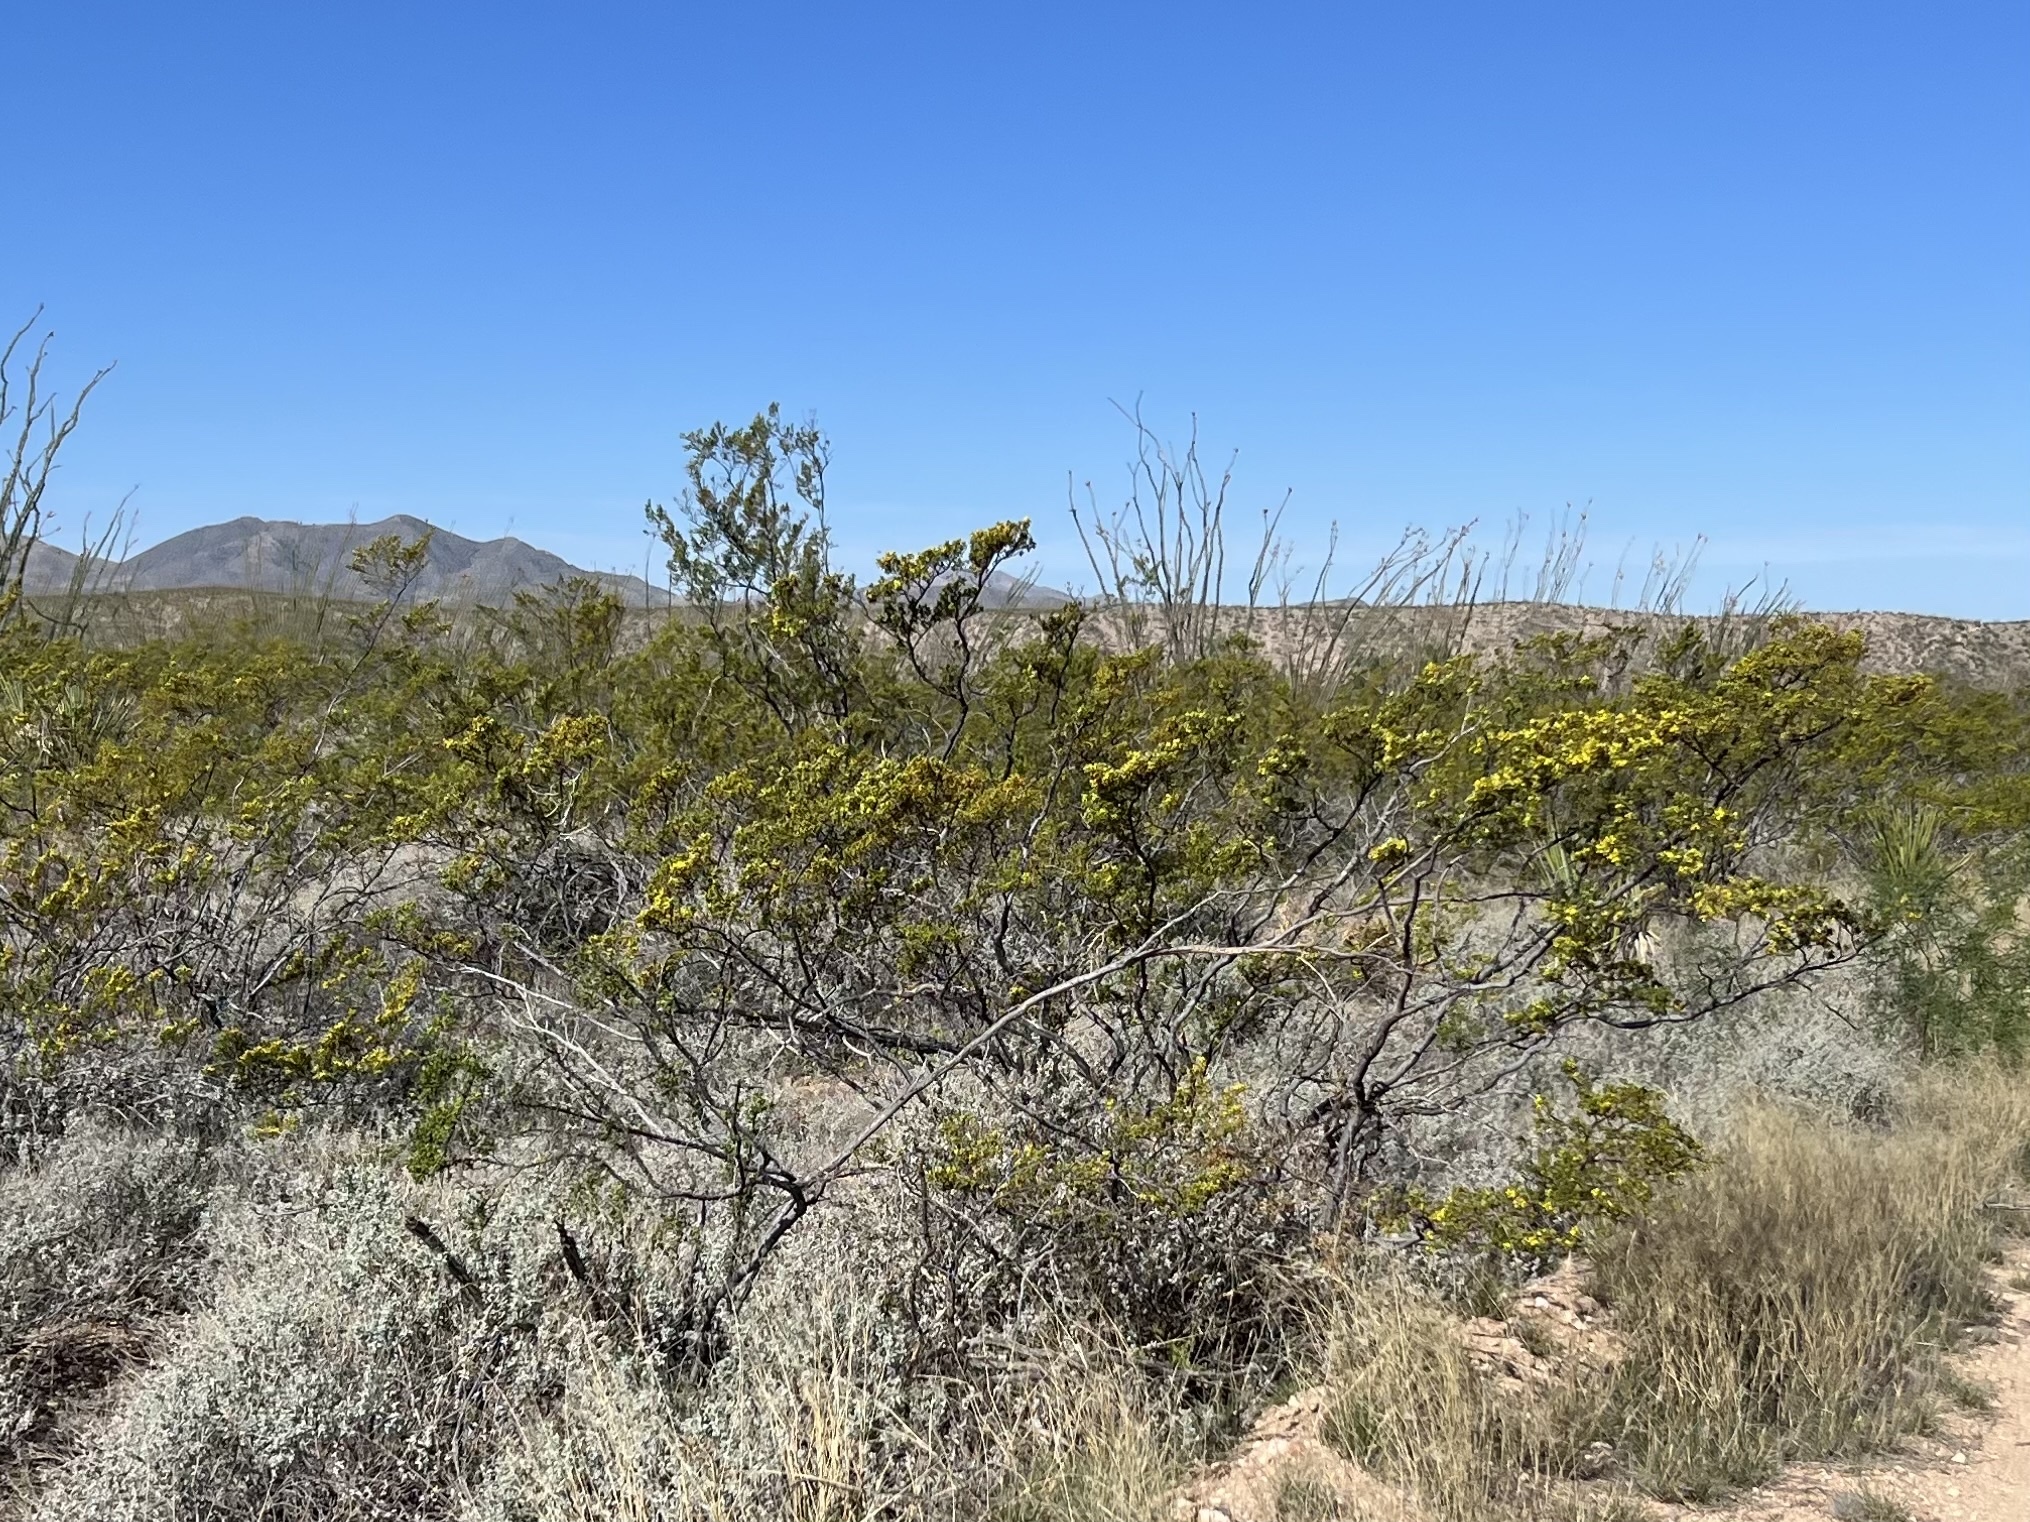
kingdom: Plantae
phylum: Tracheophyta
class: Magnoliopsida
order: Zygophyllales
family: Zygophyllaceae
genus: Larrea
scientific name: Larrea tridentata
